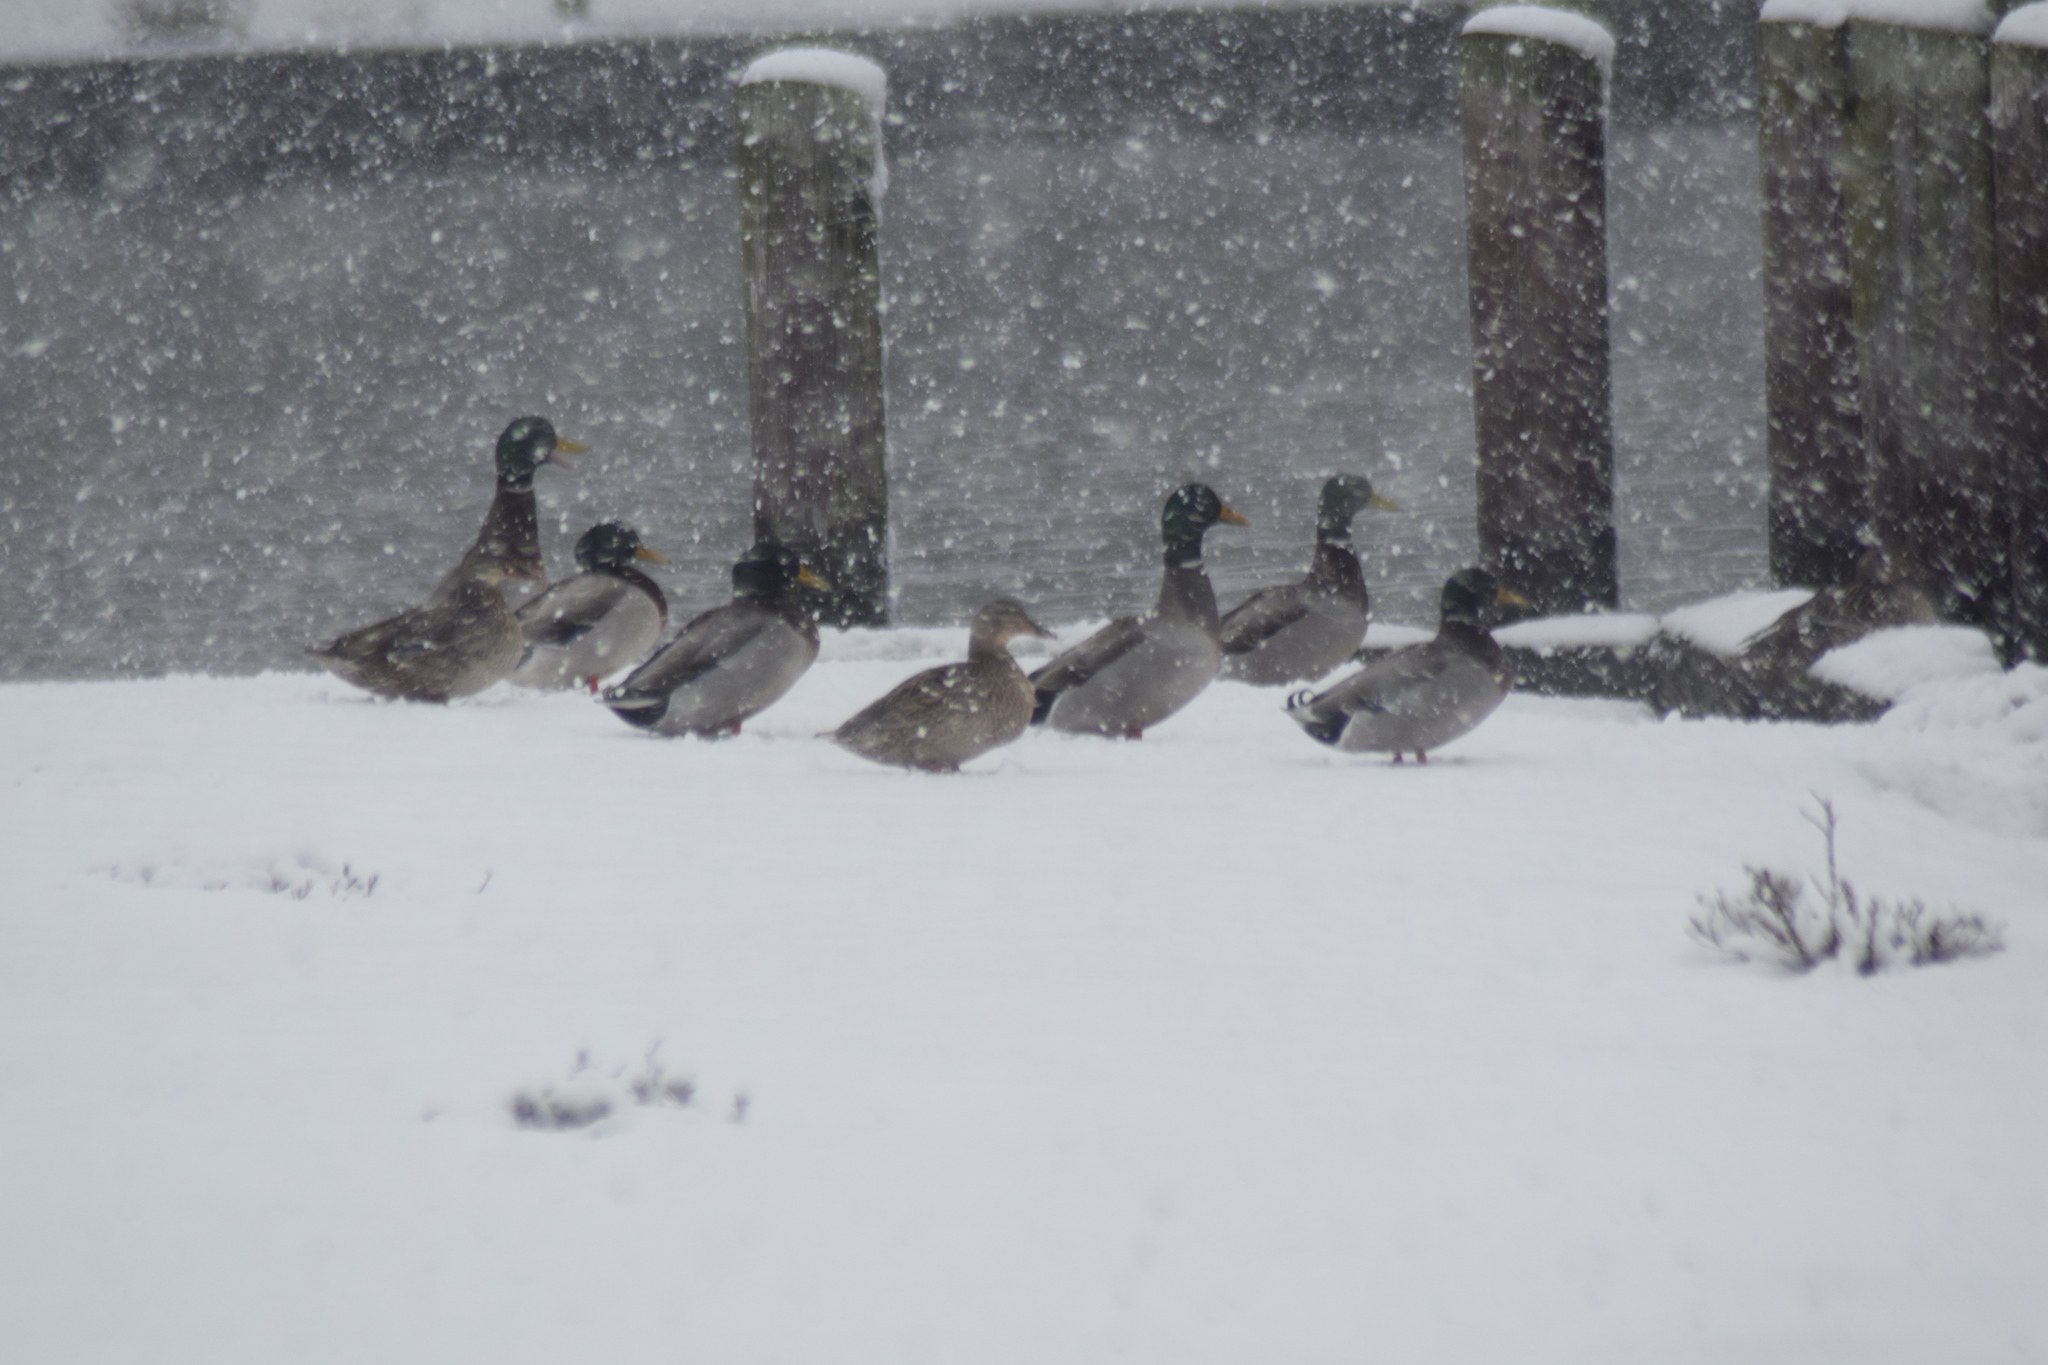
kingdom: Animalia
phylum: Chordata
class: Aves
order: Anseriformes
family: Anatidae
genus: Anas
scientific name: Anas platyrhynchos
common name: Mallard
